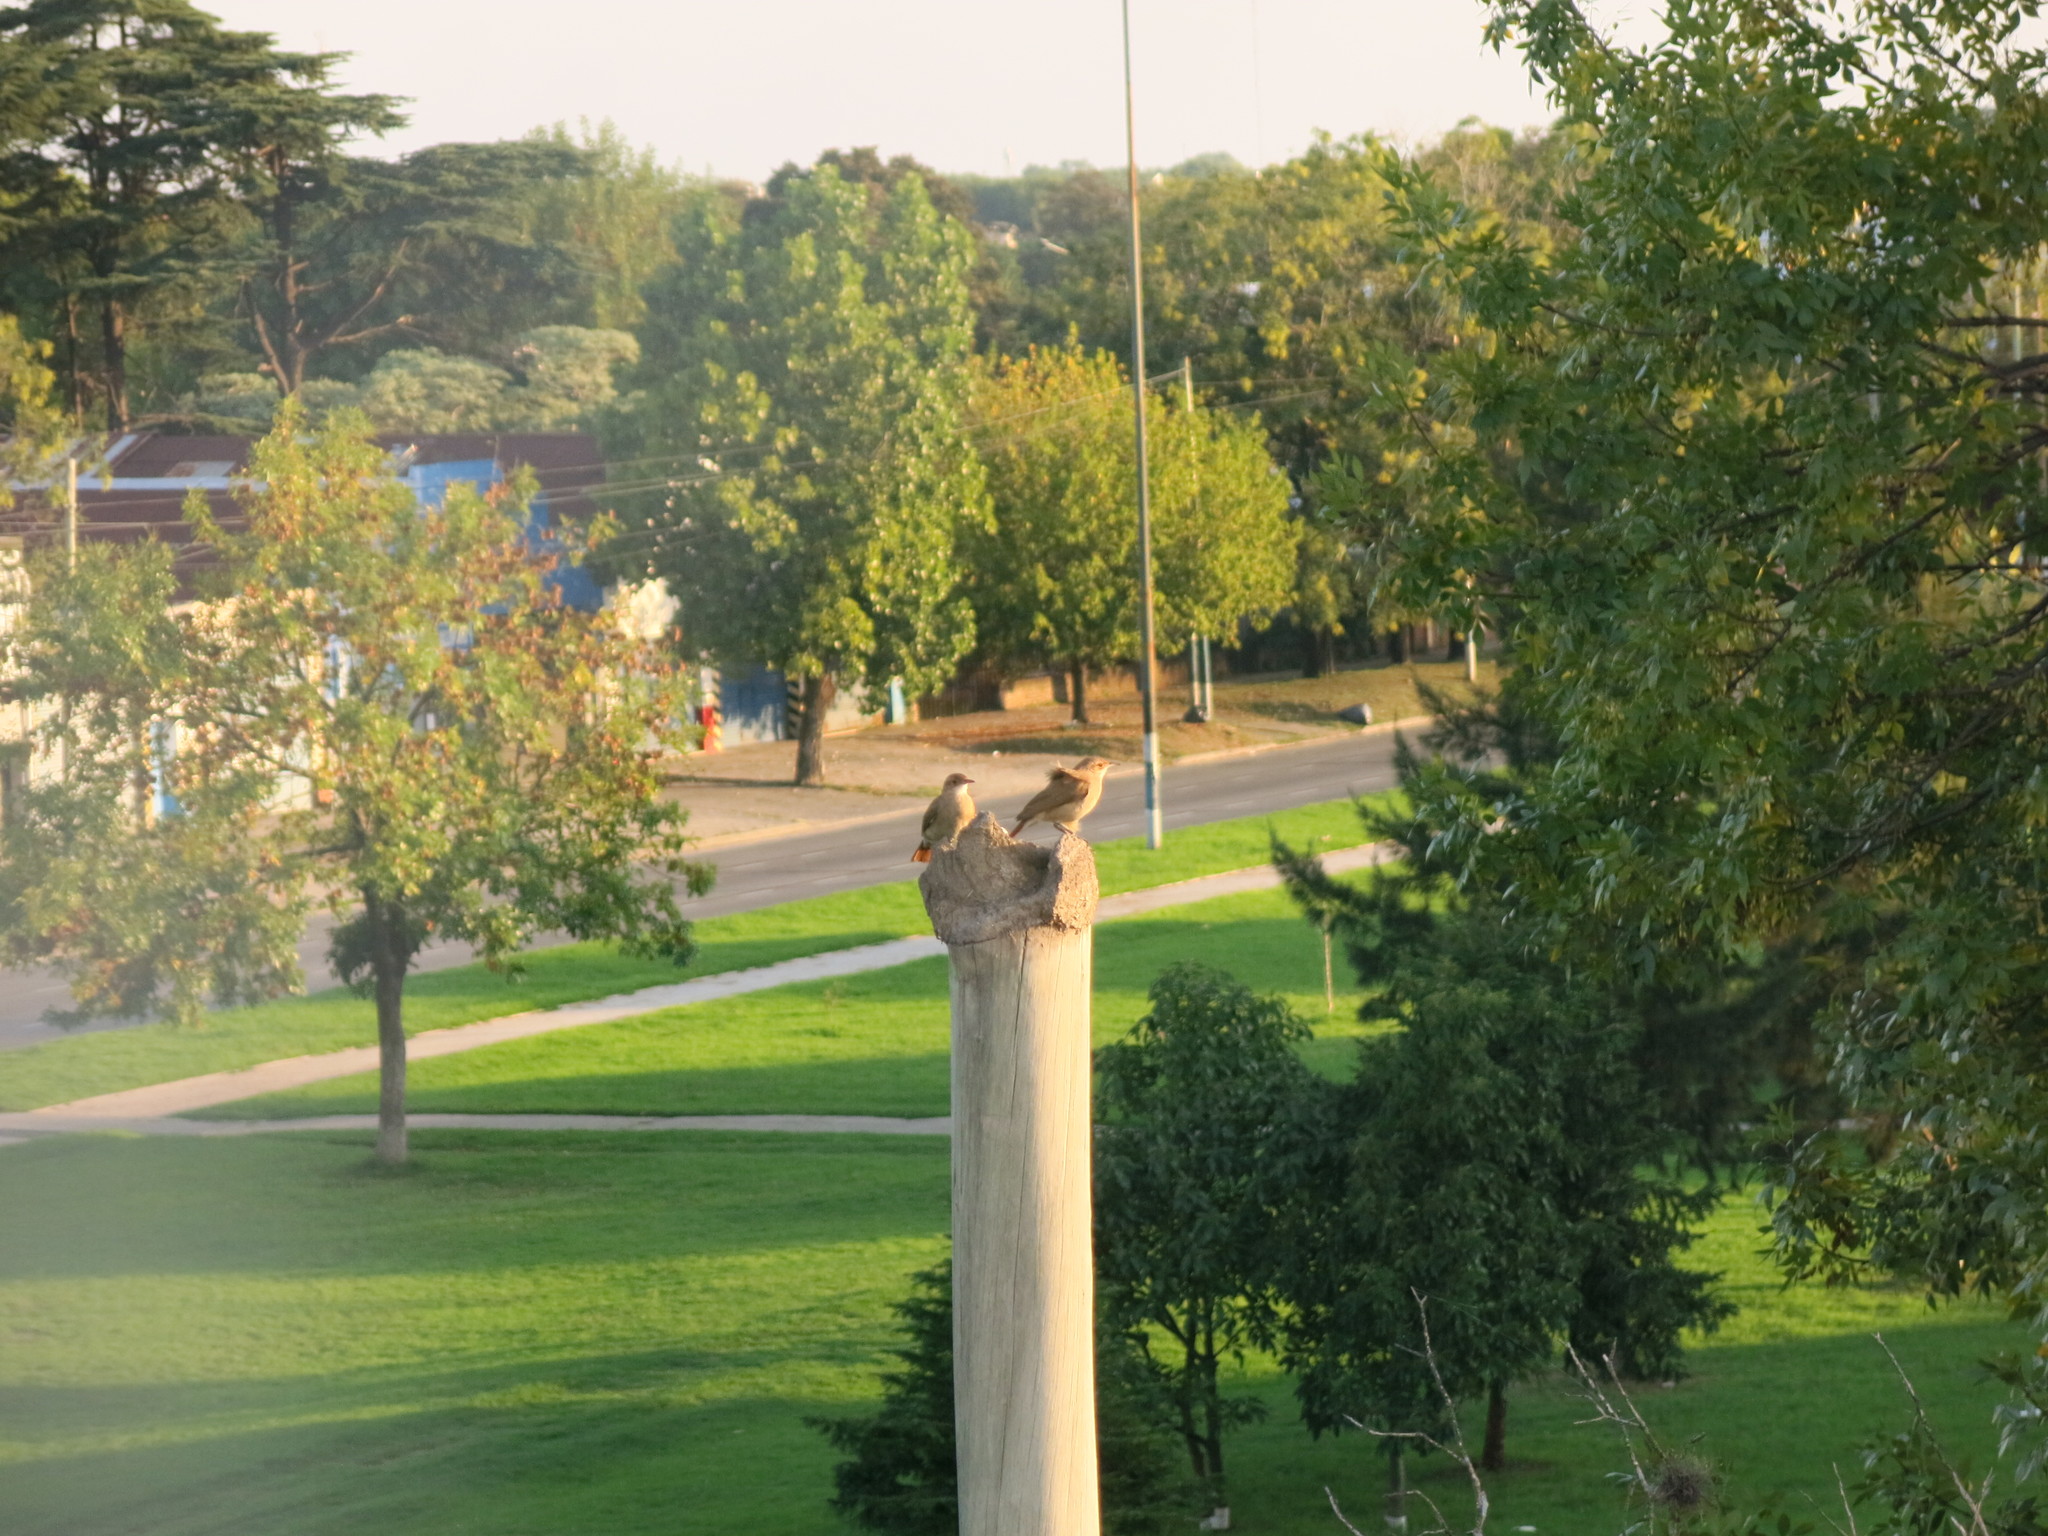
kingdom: Animalia
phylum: Chordata
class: Aves
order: Passeriformes
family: Furnariidae
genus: Furnarius
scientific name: Furnarius rufus
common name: Rufous hornero
